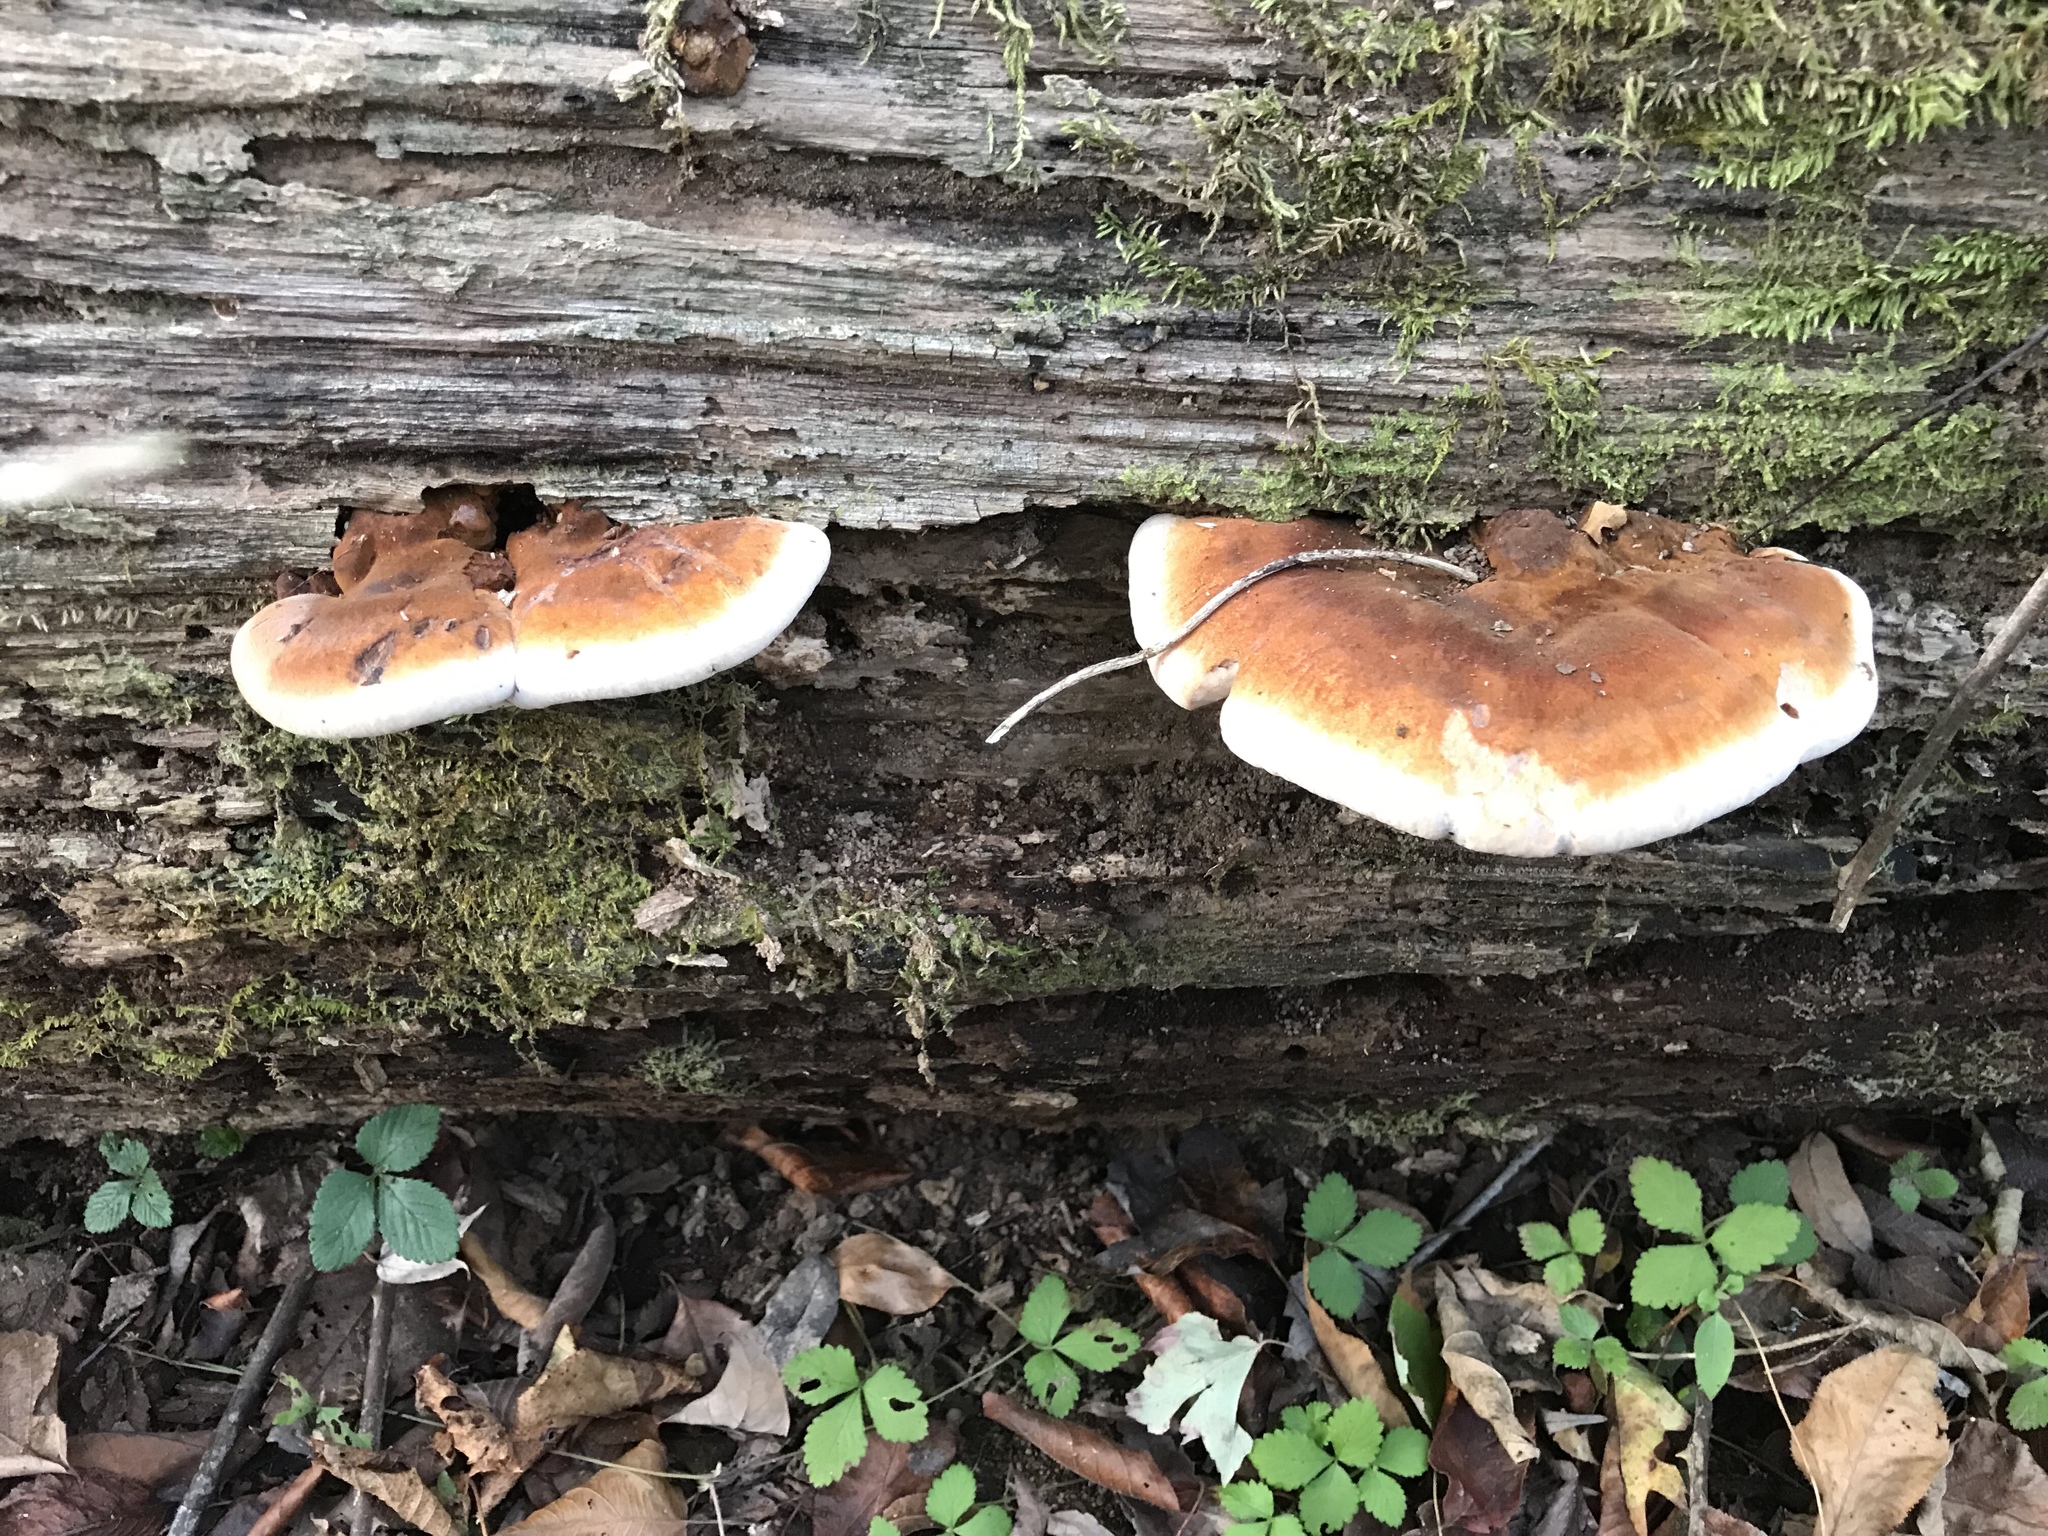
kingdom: Fungi
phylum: Basidiomycota
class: Agaricomycetes
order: Polyporales
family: Ischnodermataceae
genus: Ischnoderma
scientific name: Ischnoderma resinosum
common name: Resinous polypore
